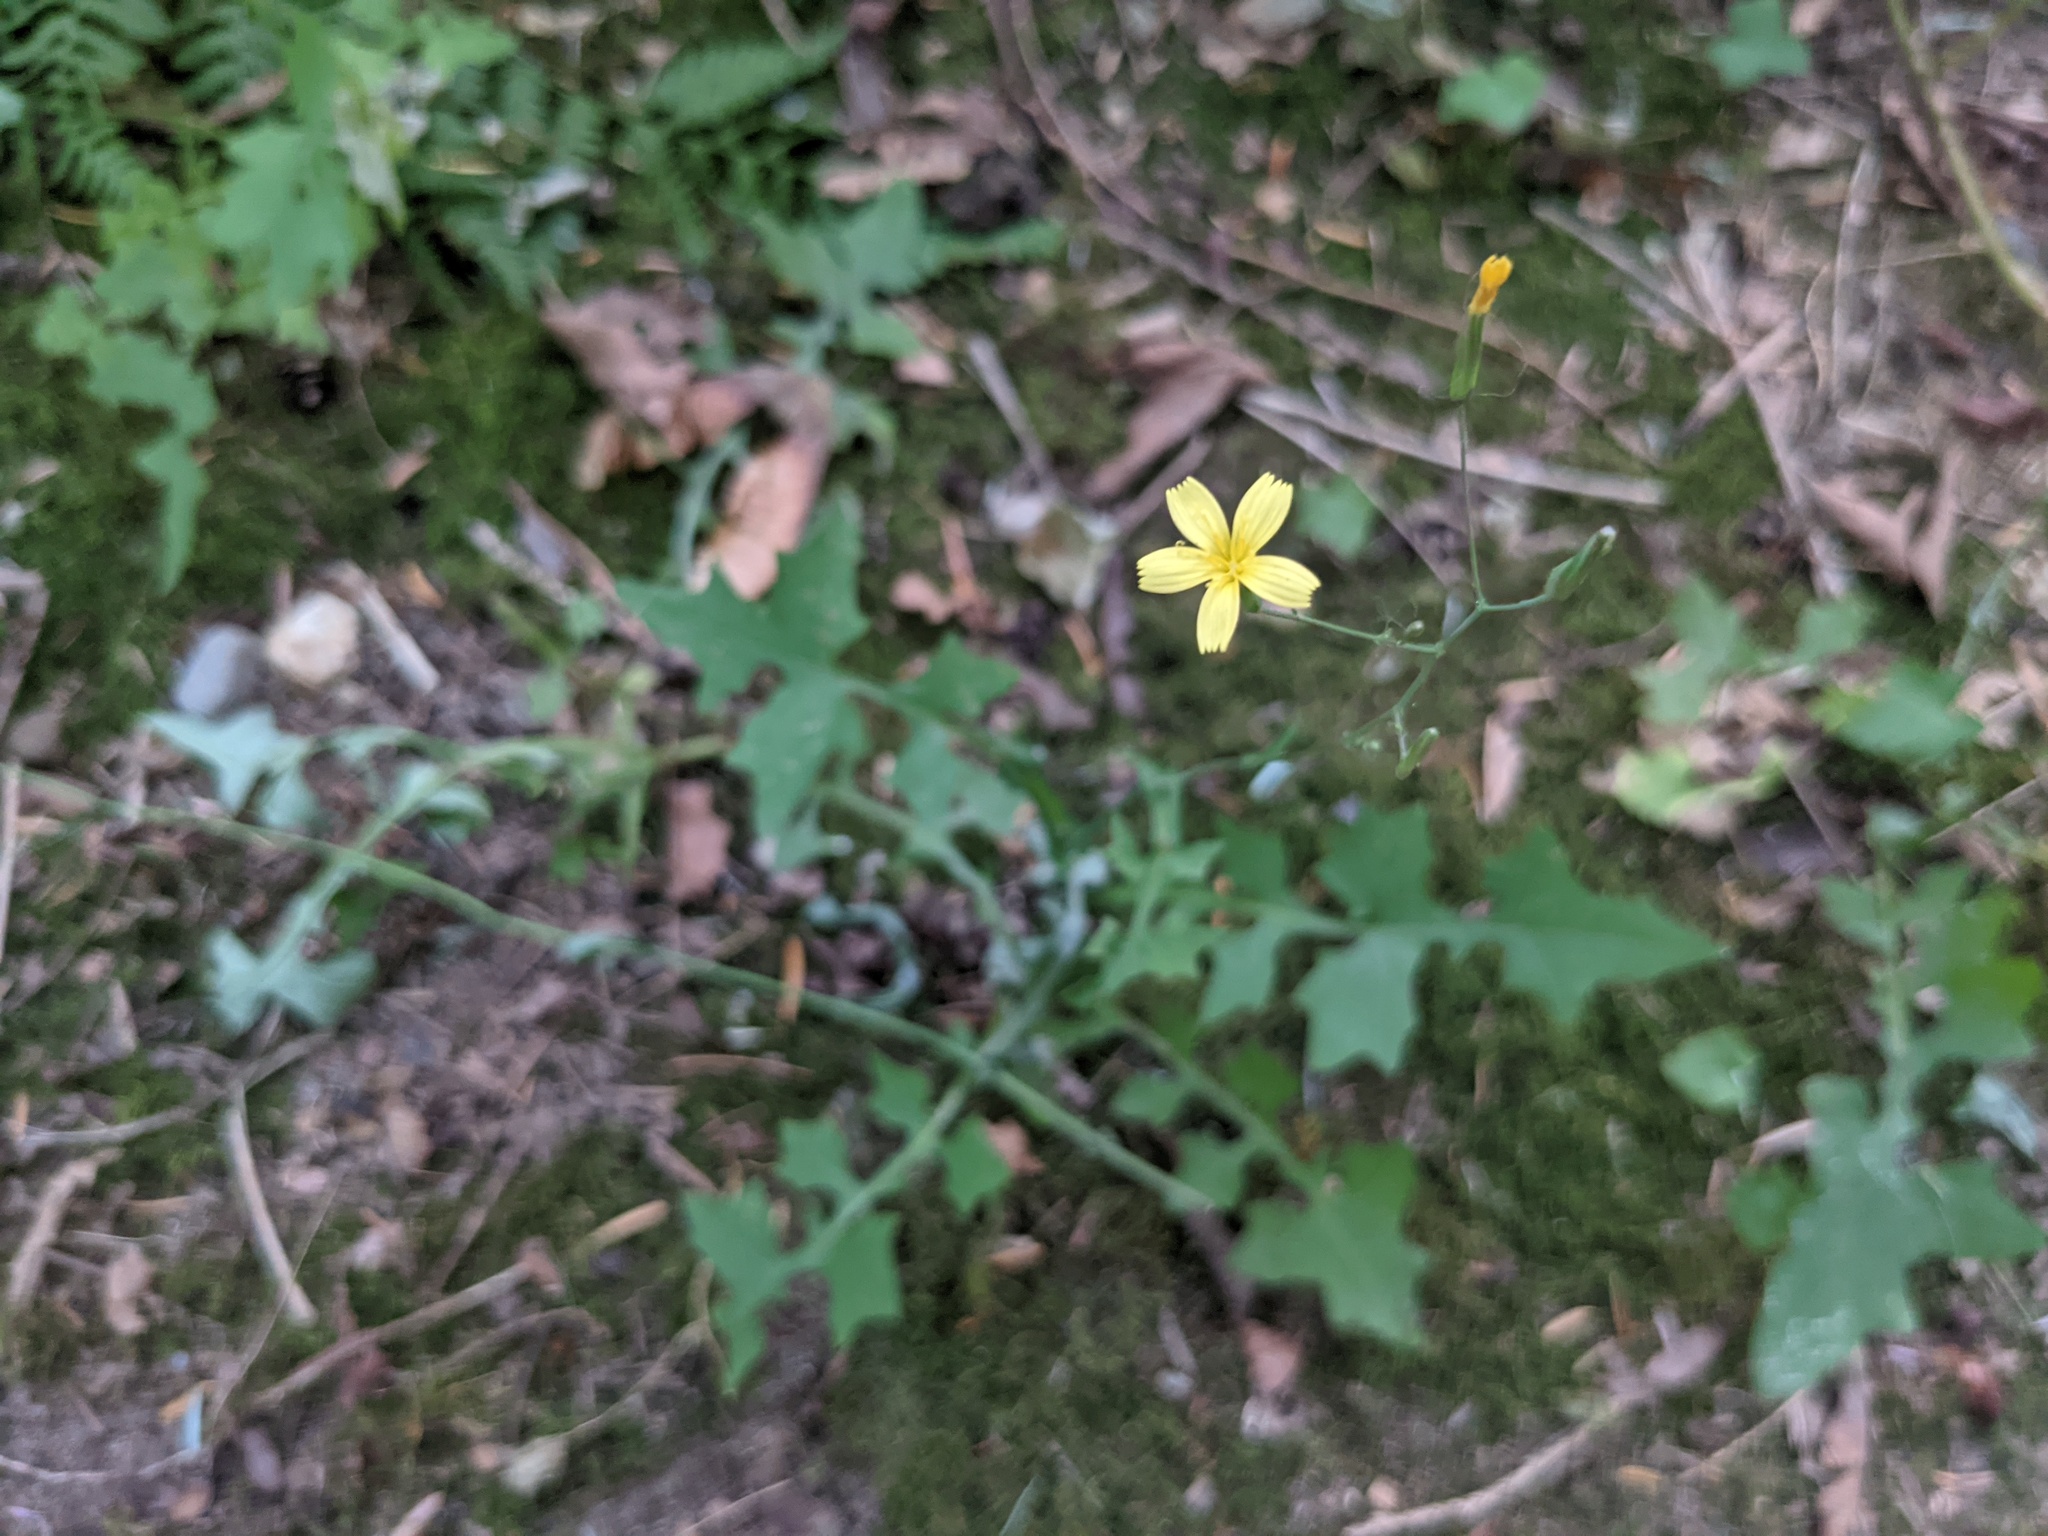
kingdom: Plantae
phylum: Tracheophyta
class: Magnoliopsida
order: Asterales
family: Asteraceae
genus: Mycelis
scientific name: Mycelis muralis
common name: Wall lettuce
